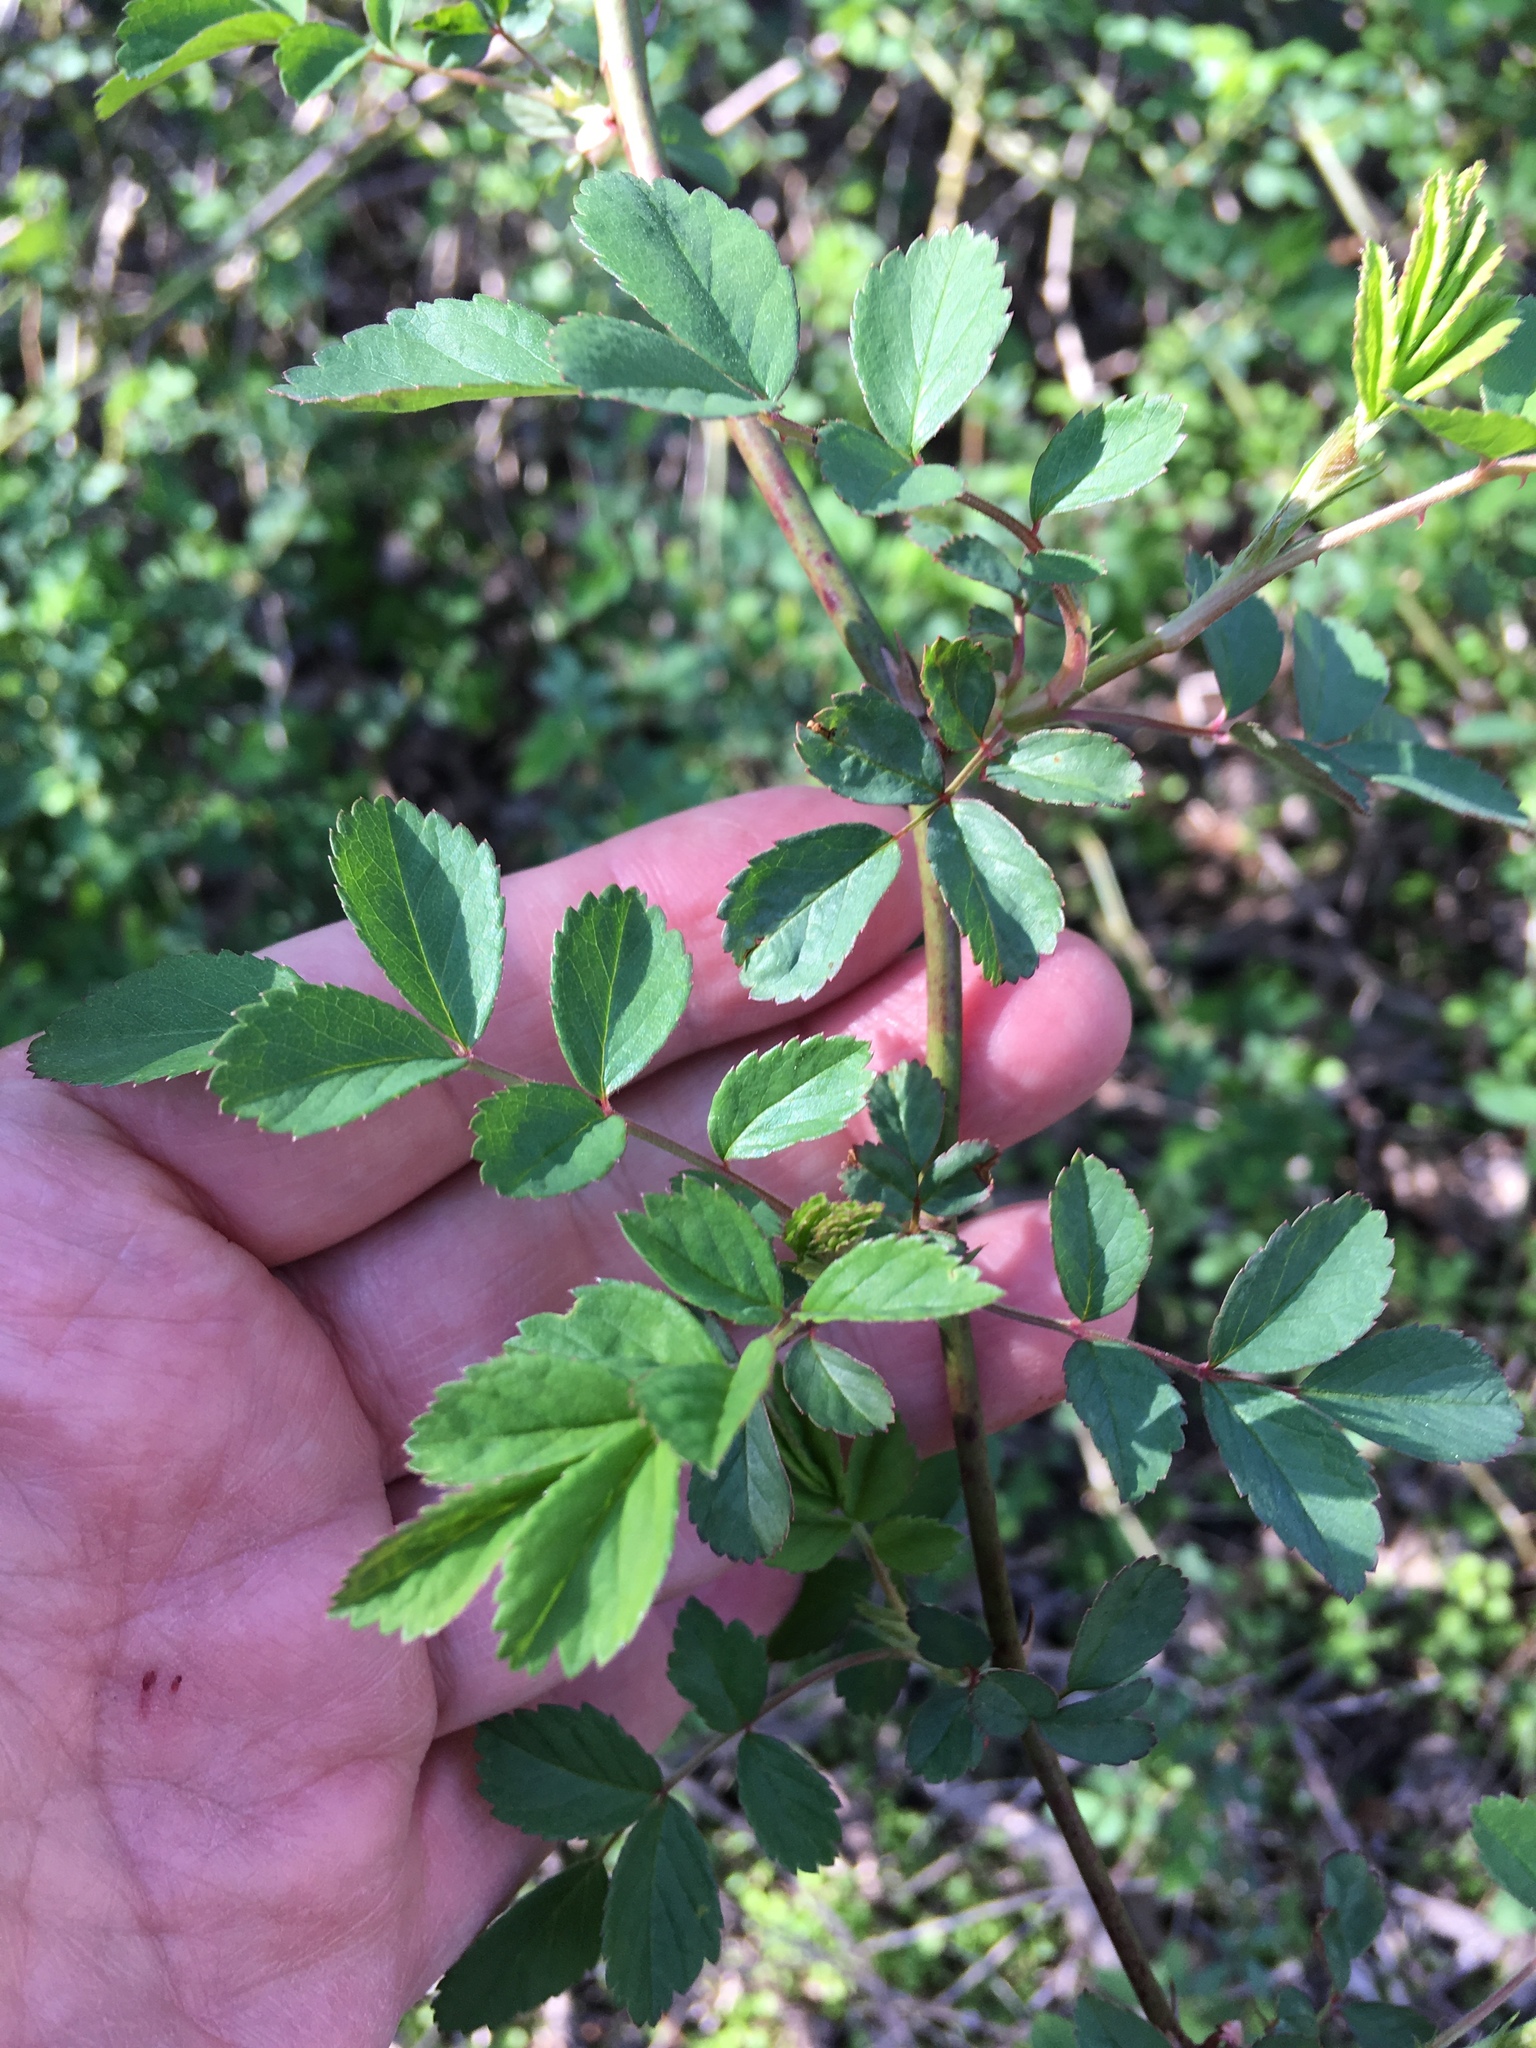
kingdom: Plantae
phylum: Tracheophyta
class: Magnoliopsida
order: Rosales
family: Rosaceae
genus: Rosa
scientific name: Rosa multiflora
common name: Multiflora rose
